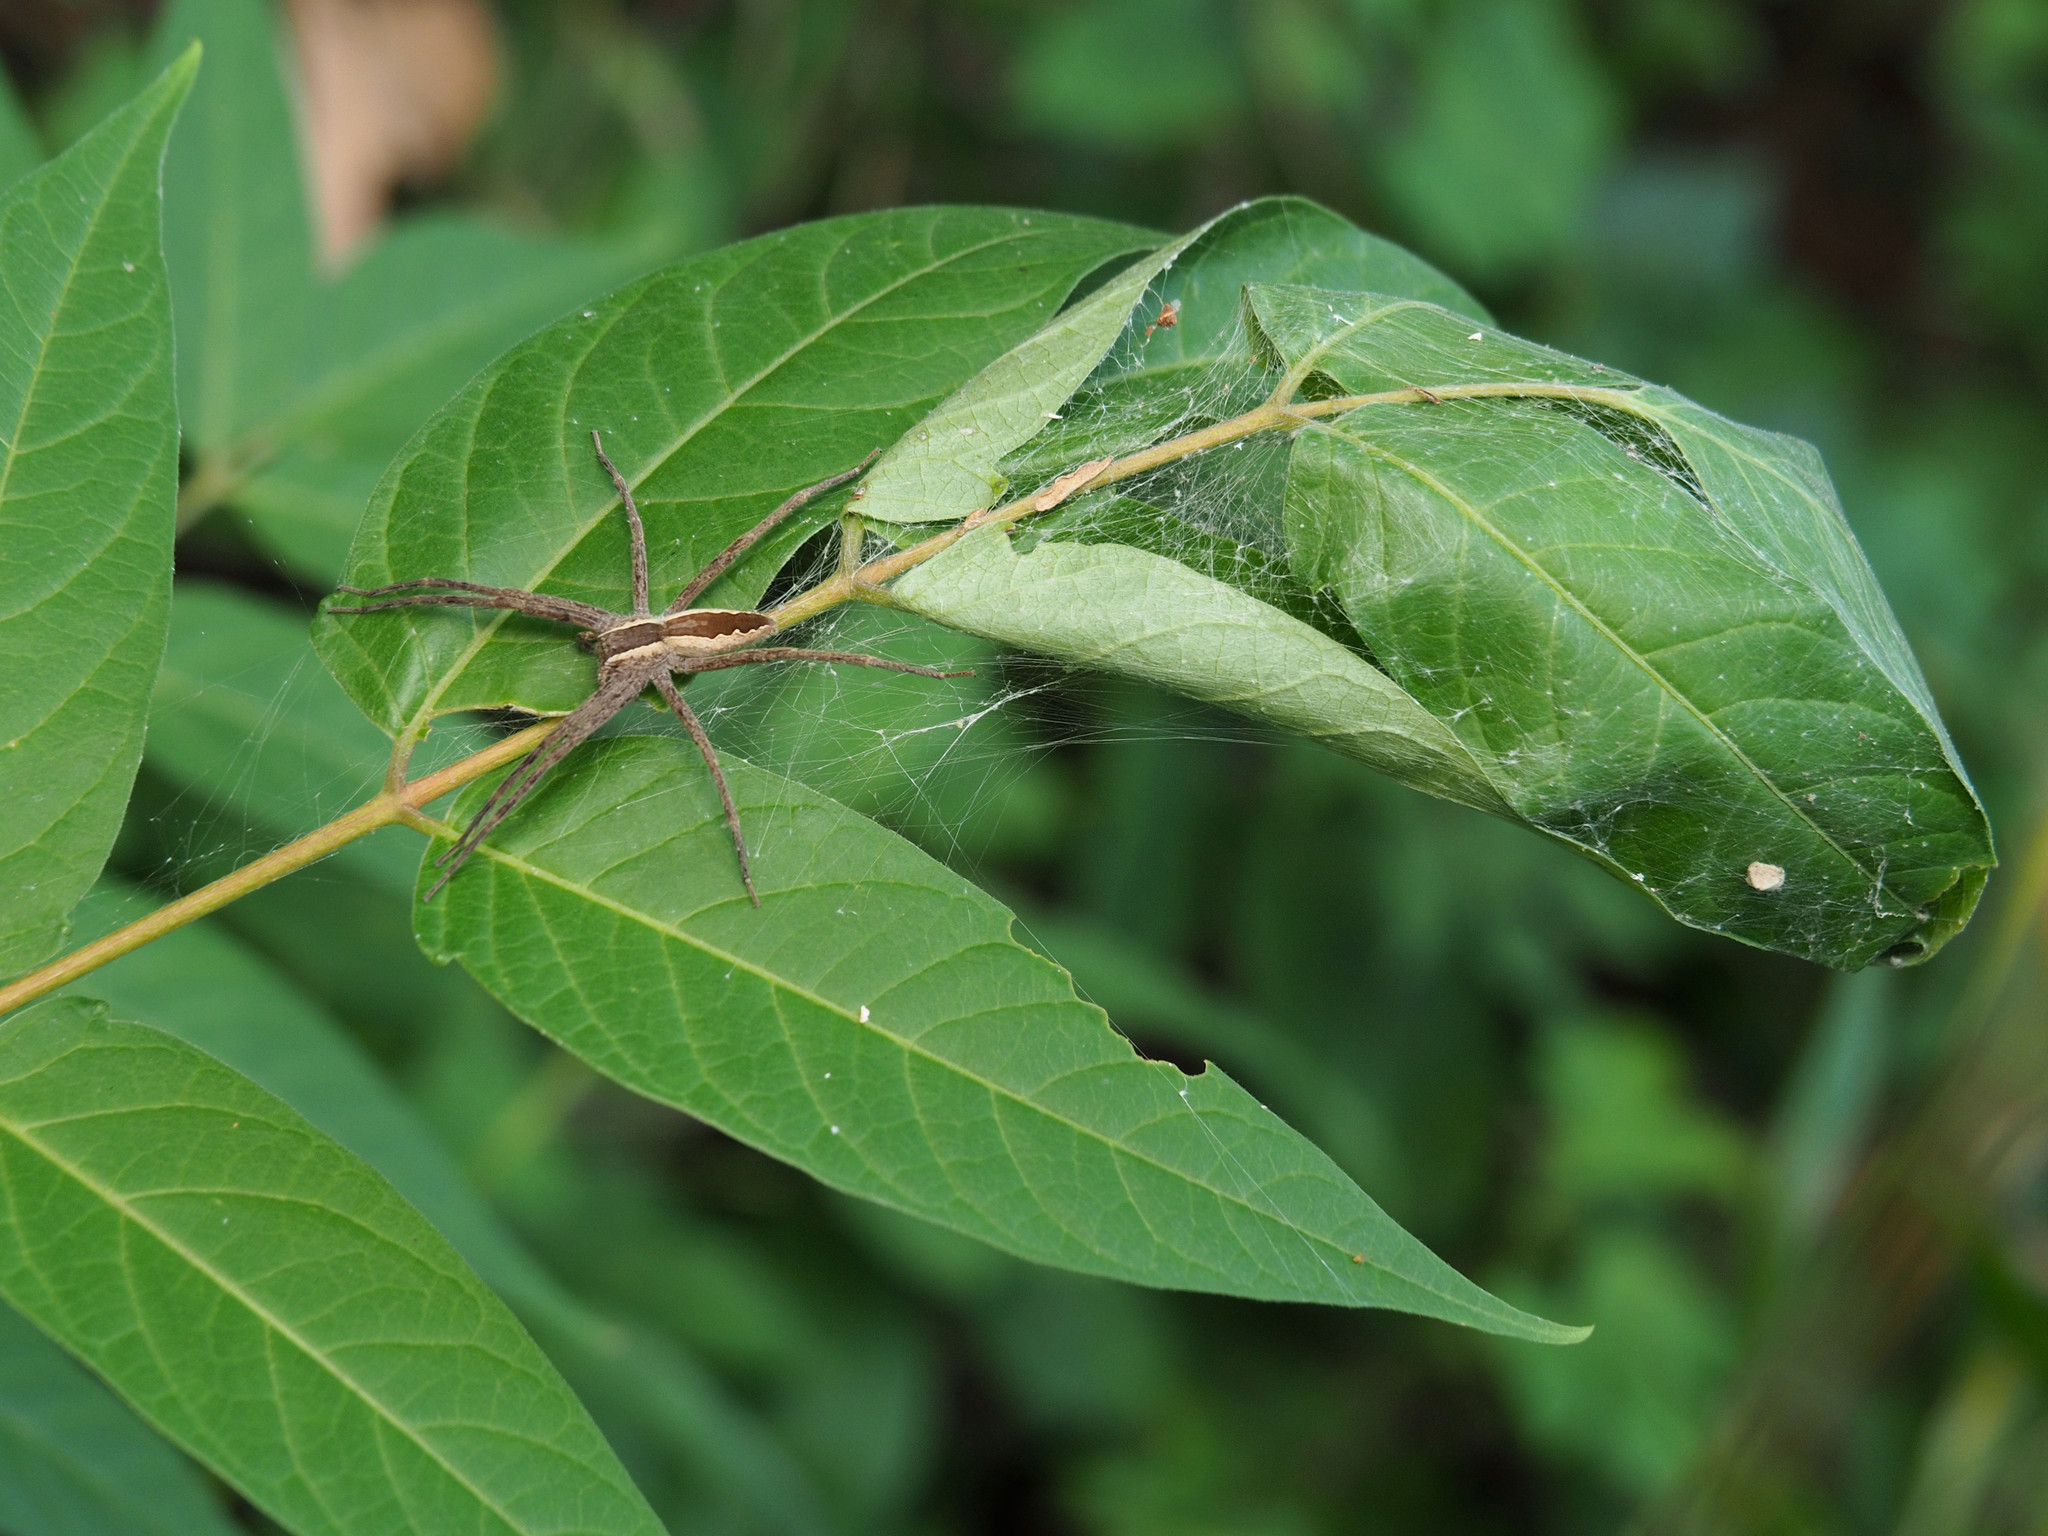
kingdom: Animalia
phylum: Arthropoda
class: Arachnida
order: Araneae
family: Pisauridae
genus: Pisaurina
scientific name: Pisaurina mira
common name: American nursery web spider
